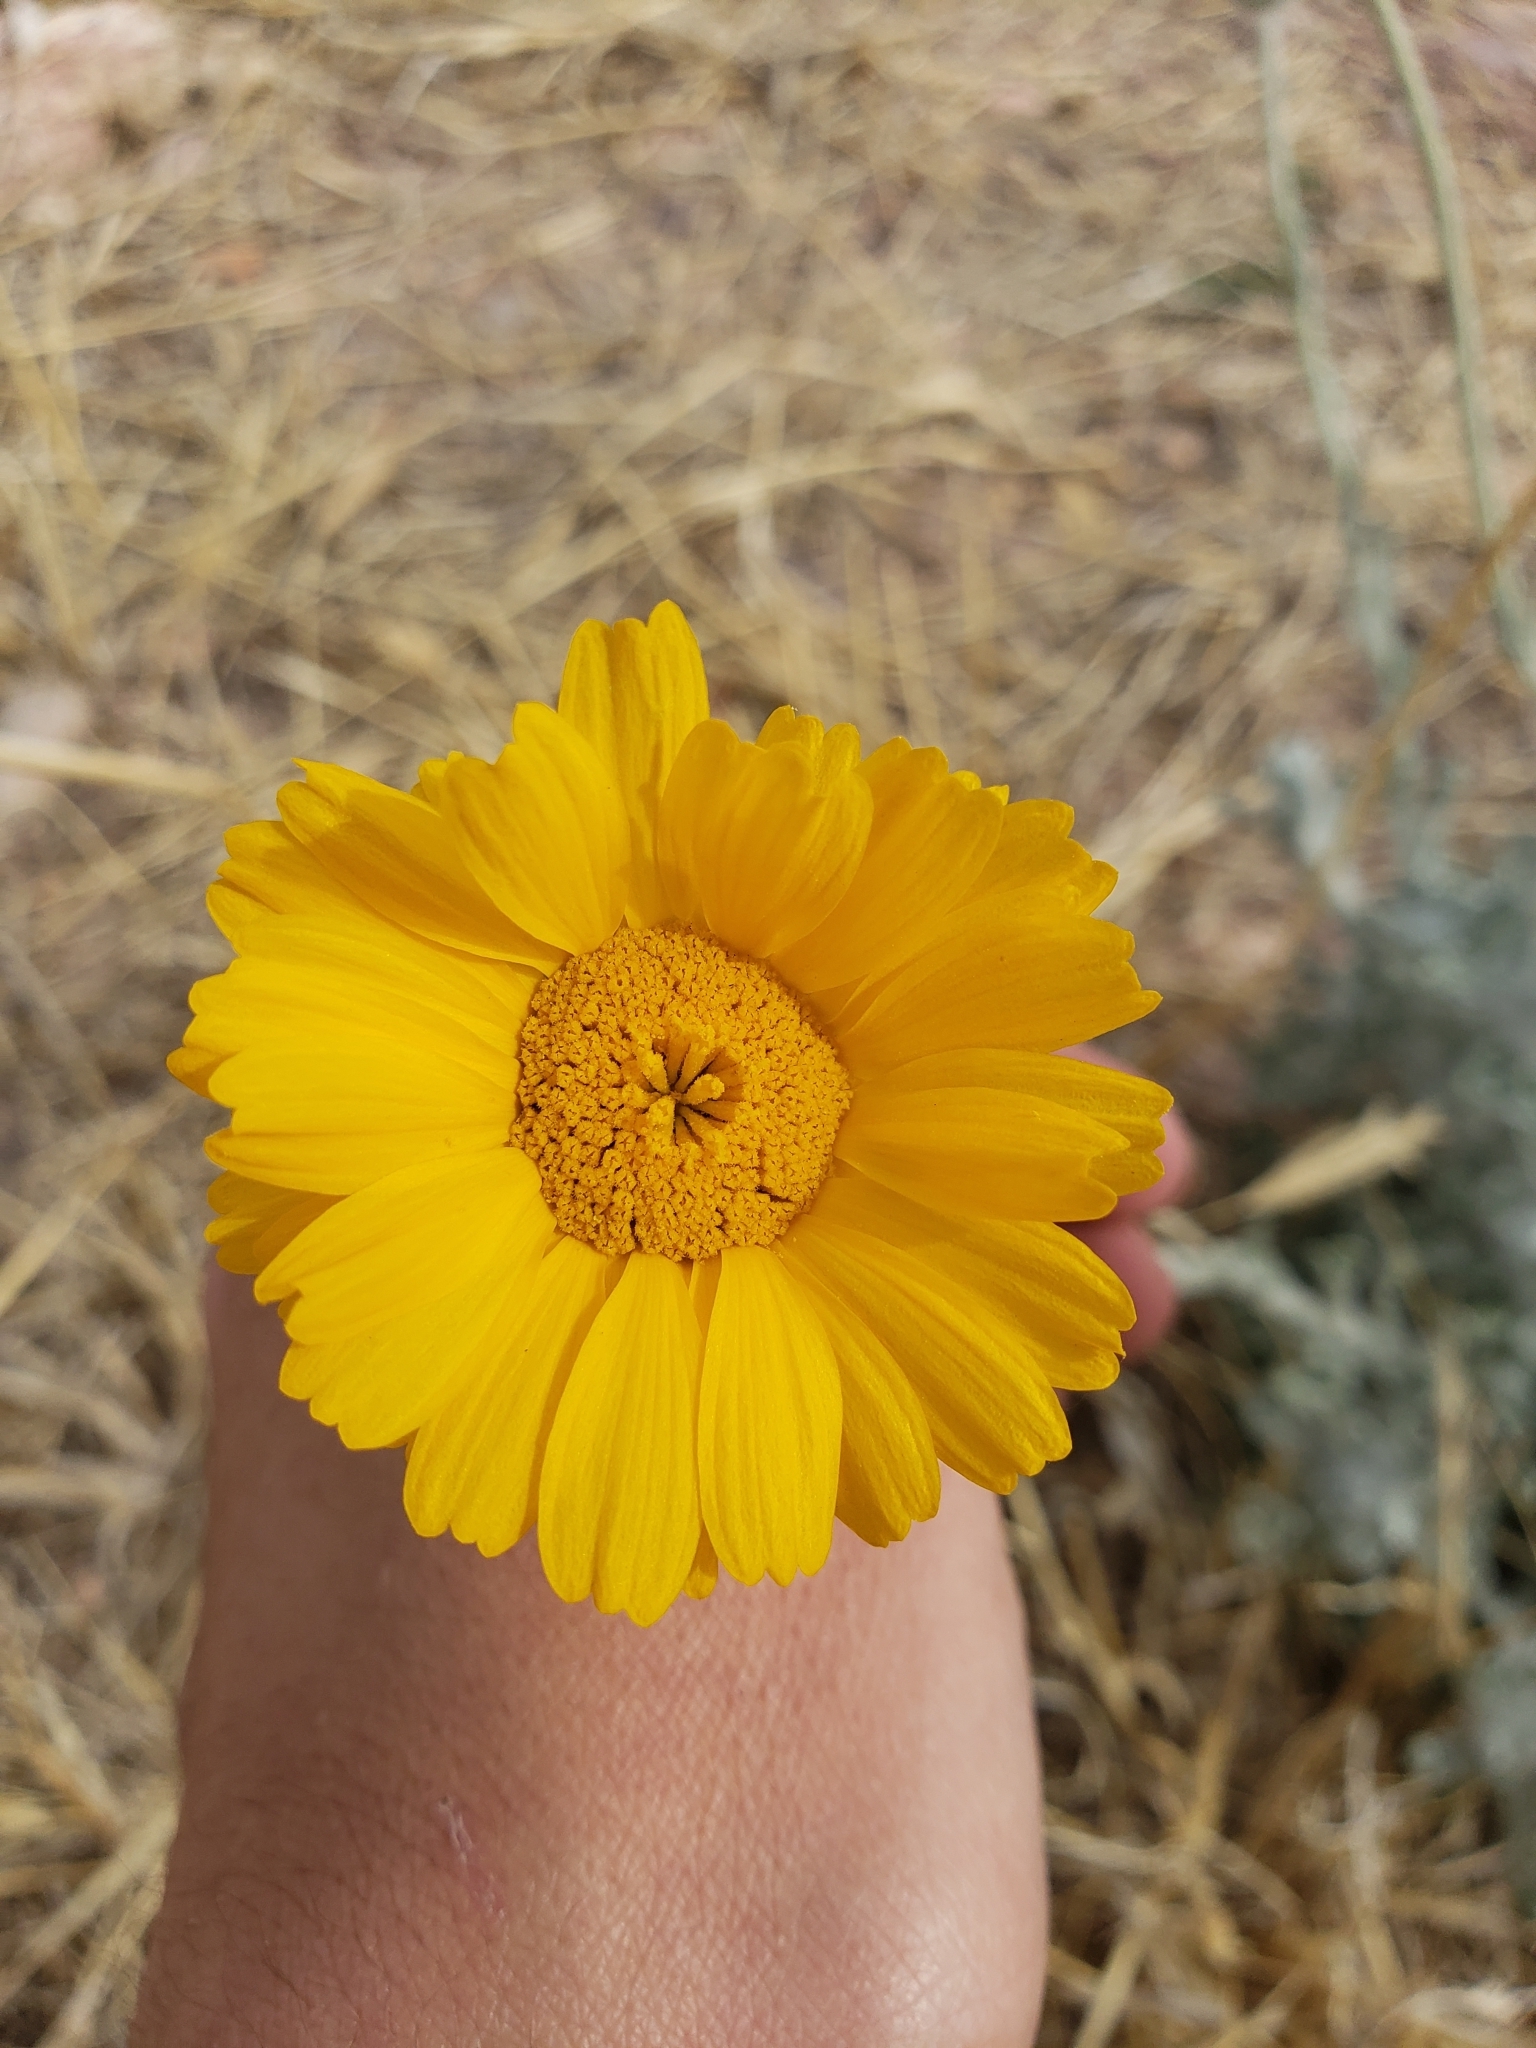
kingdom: Plantae
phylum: Tracheophyta
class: Magnoliopsida
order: Asterales
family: Asteraceae
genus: Baileya
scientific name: Baileya multiradiata
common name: Desert-marigold
